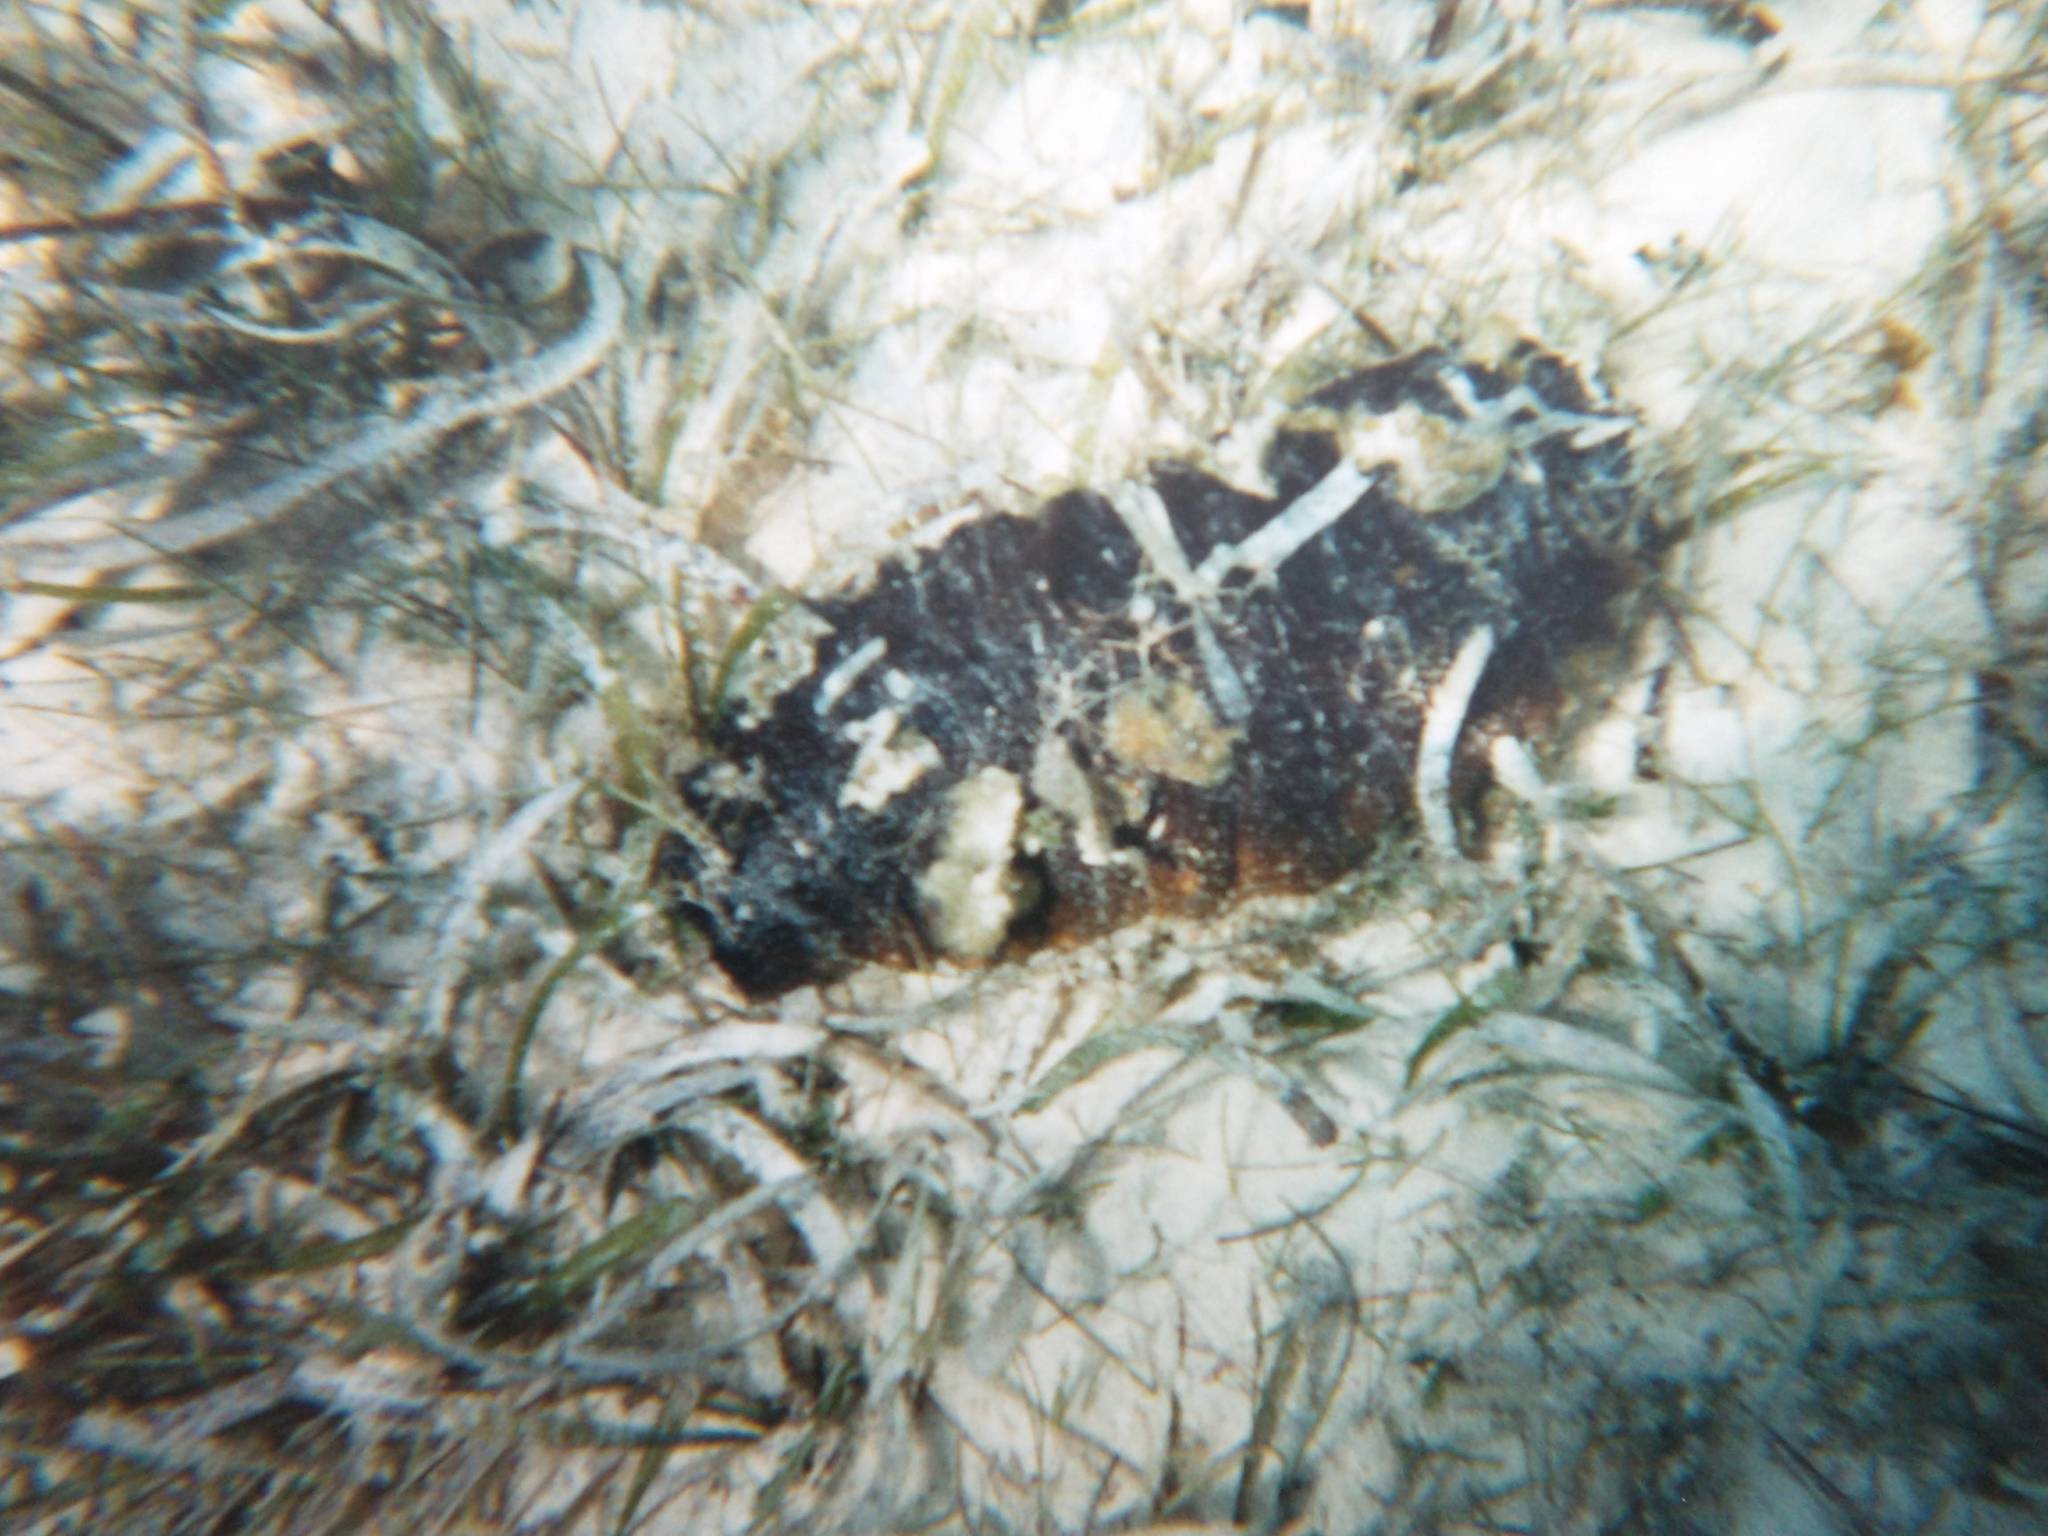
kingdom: Animalia
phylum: Echinodermata
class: Holothuroidea
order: Holothuriida
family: Holothuriidae
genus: Holothuria
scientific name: Holothuria mexicana
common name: Donkey dung sea cucumber
